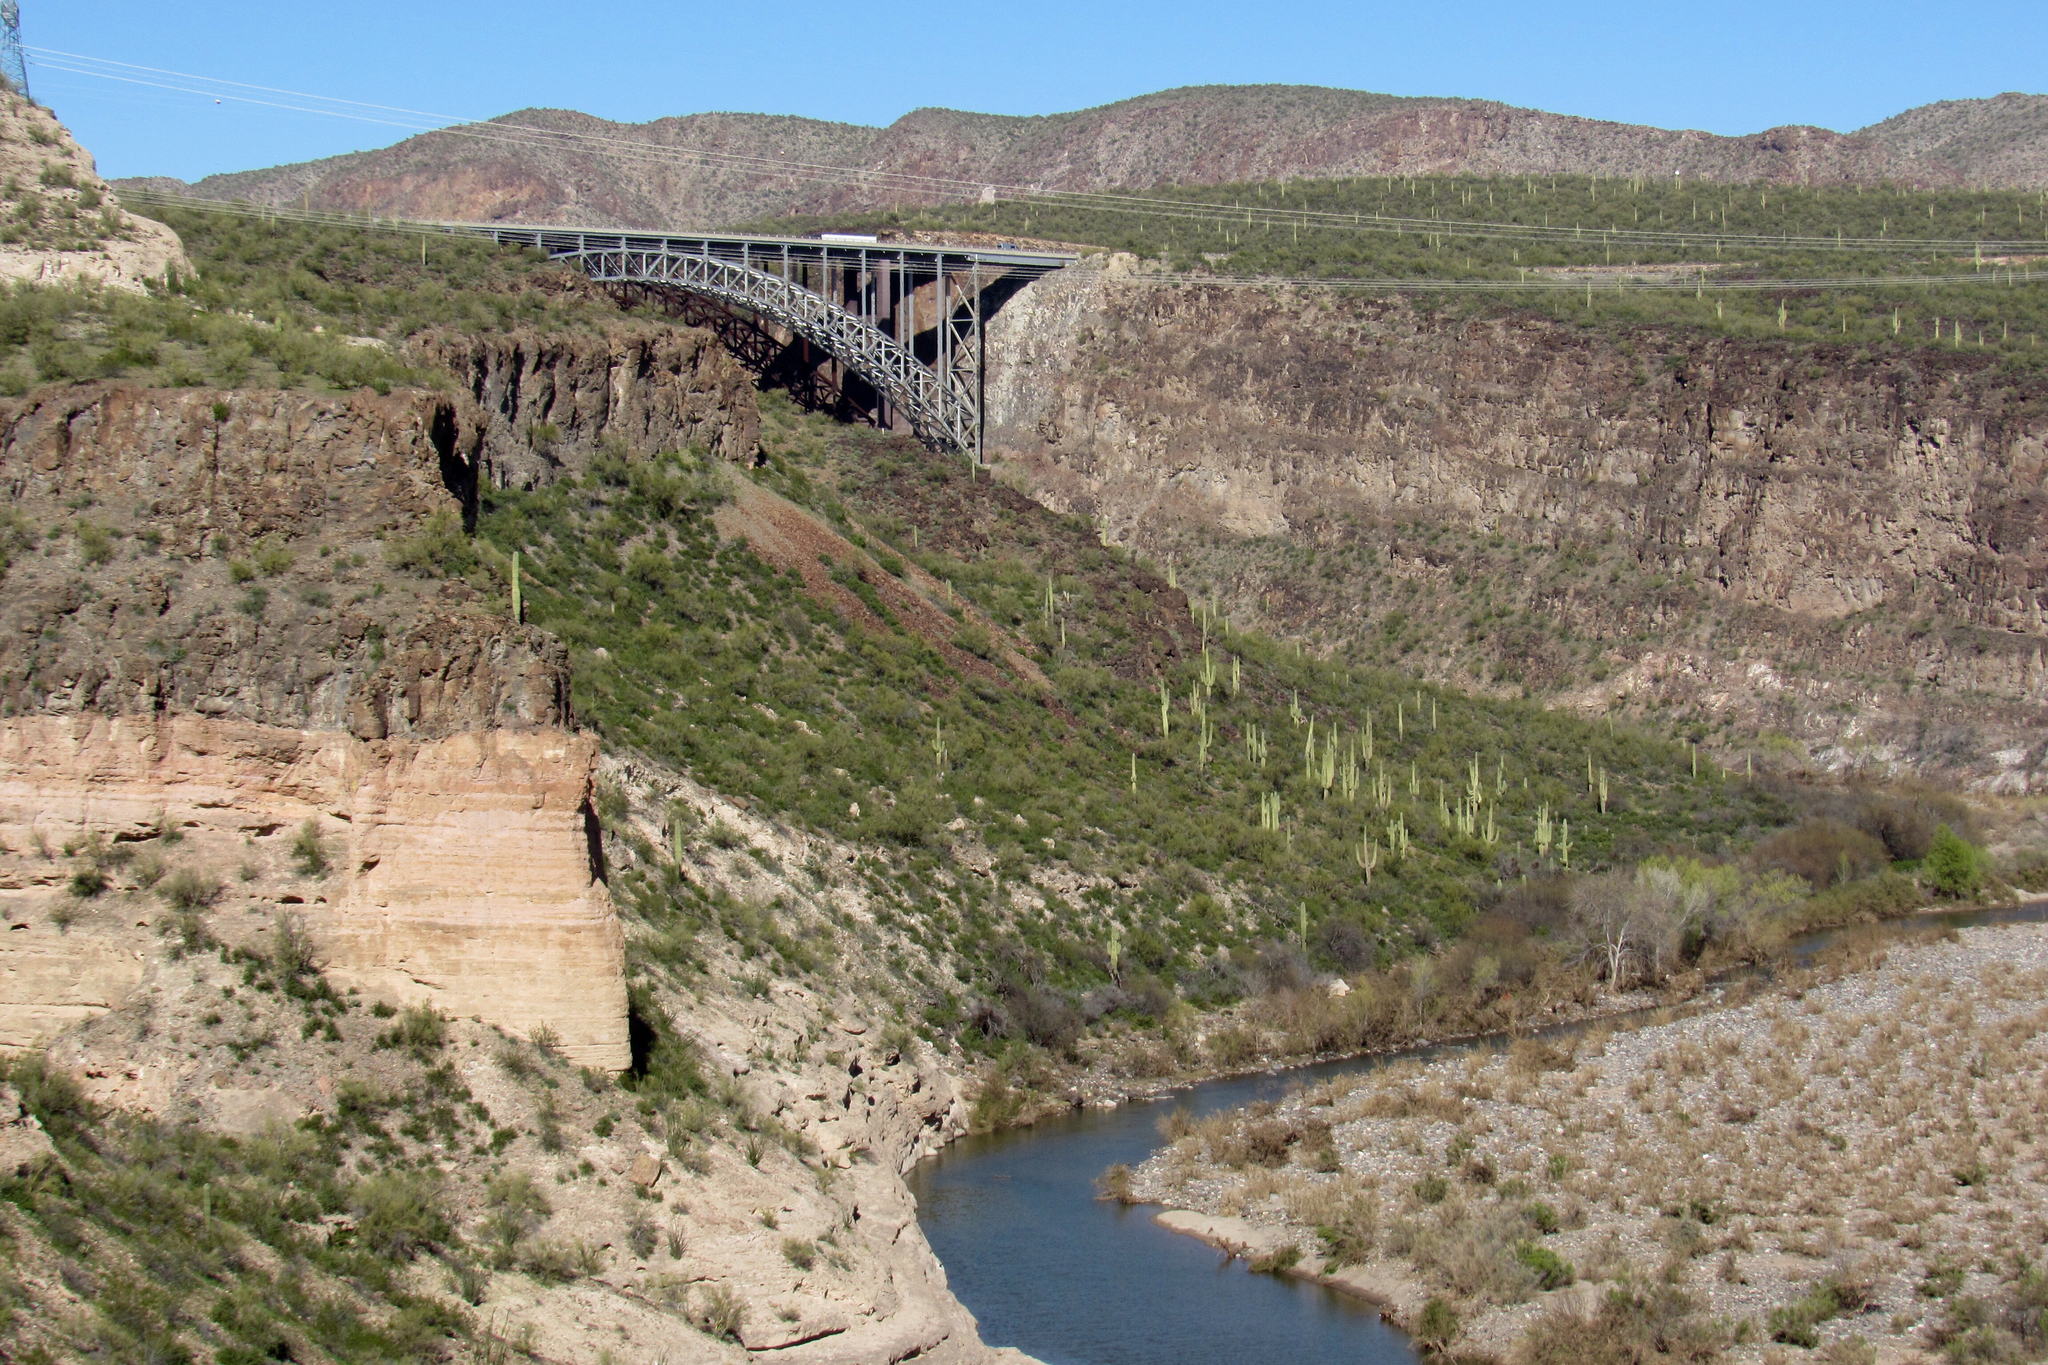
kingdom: Plantae
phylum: Tracheophyta
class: Magnoliopsida
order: Caryophyllales
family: Cactaceae
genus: Carnegiea
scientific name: Carnegiea gigantea
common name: Saguaro
